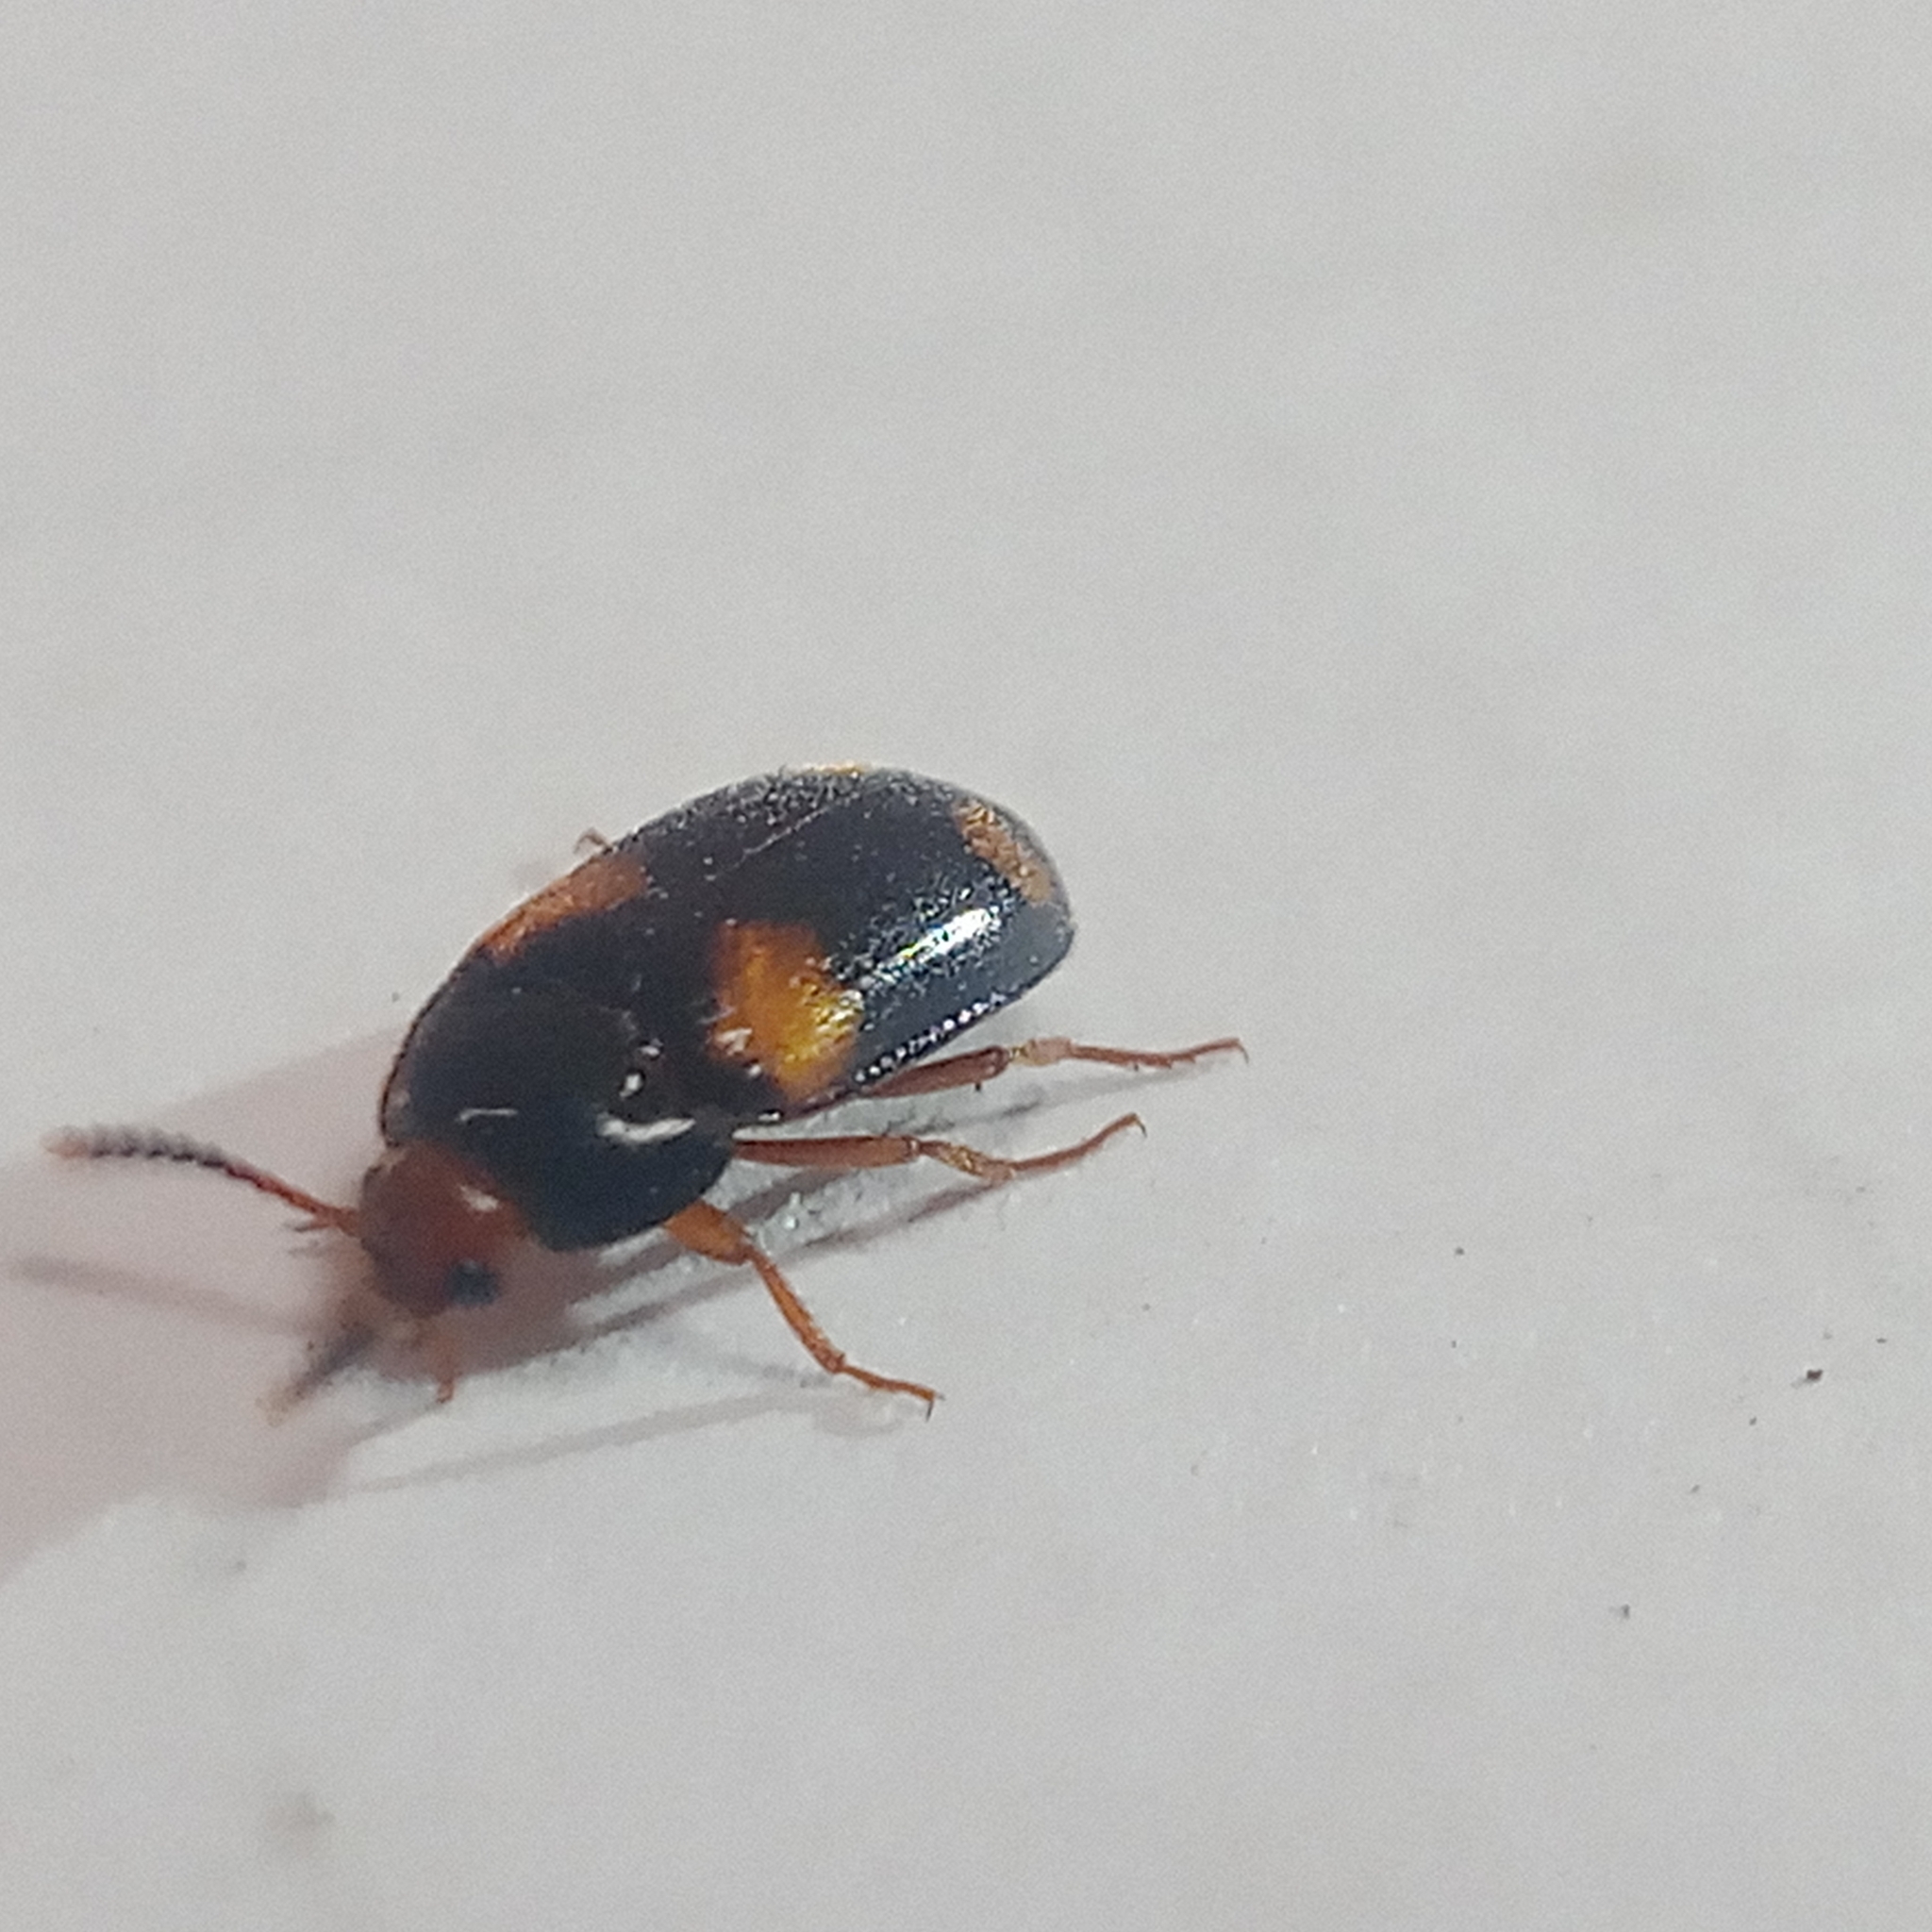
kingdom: Animalia
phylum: Arthropoda
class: Insecta
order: Coleoptera
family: Mycetophagidae
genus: Mycetophagus
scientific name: Mycetophagus quadripustulatus
